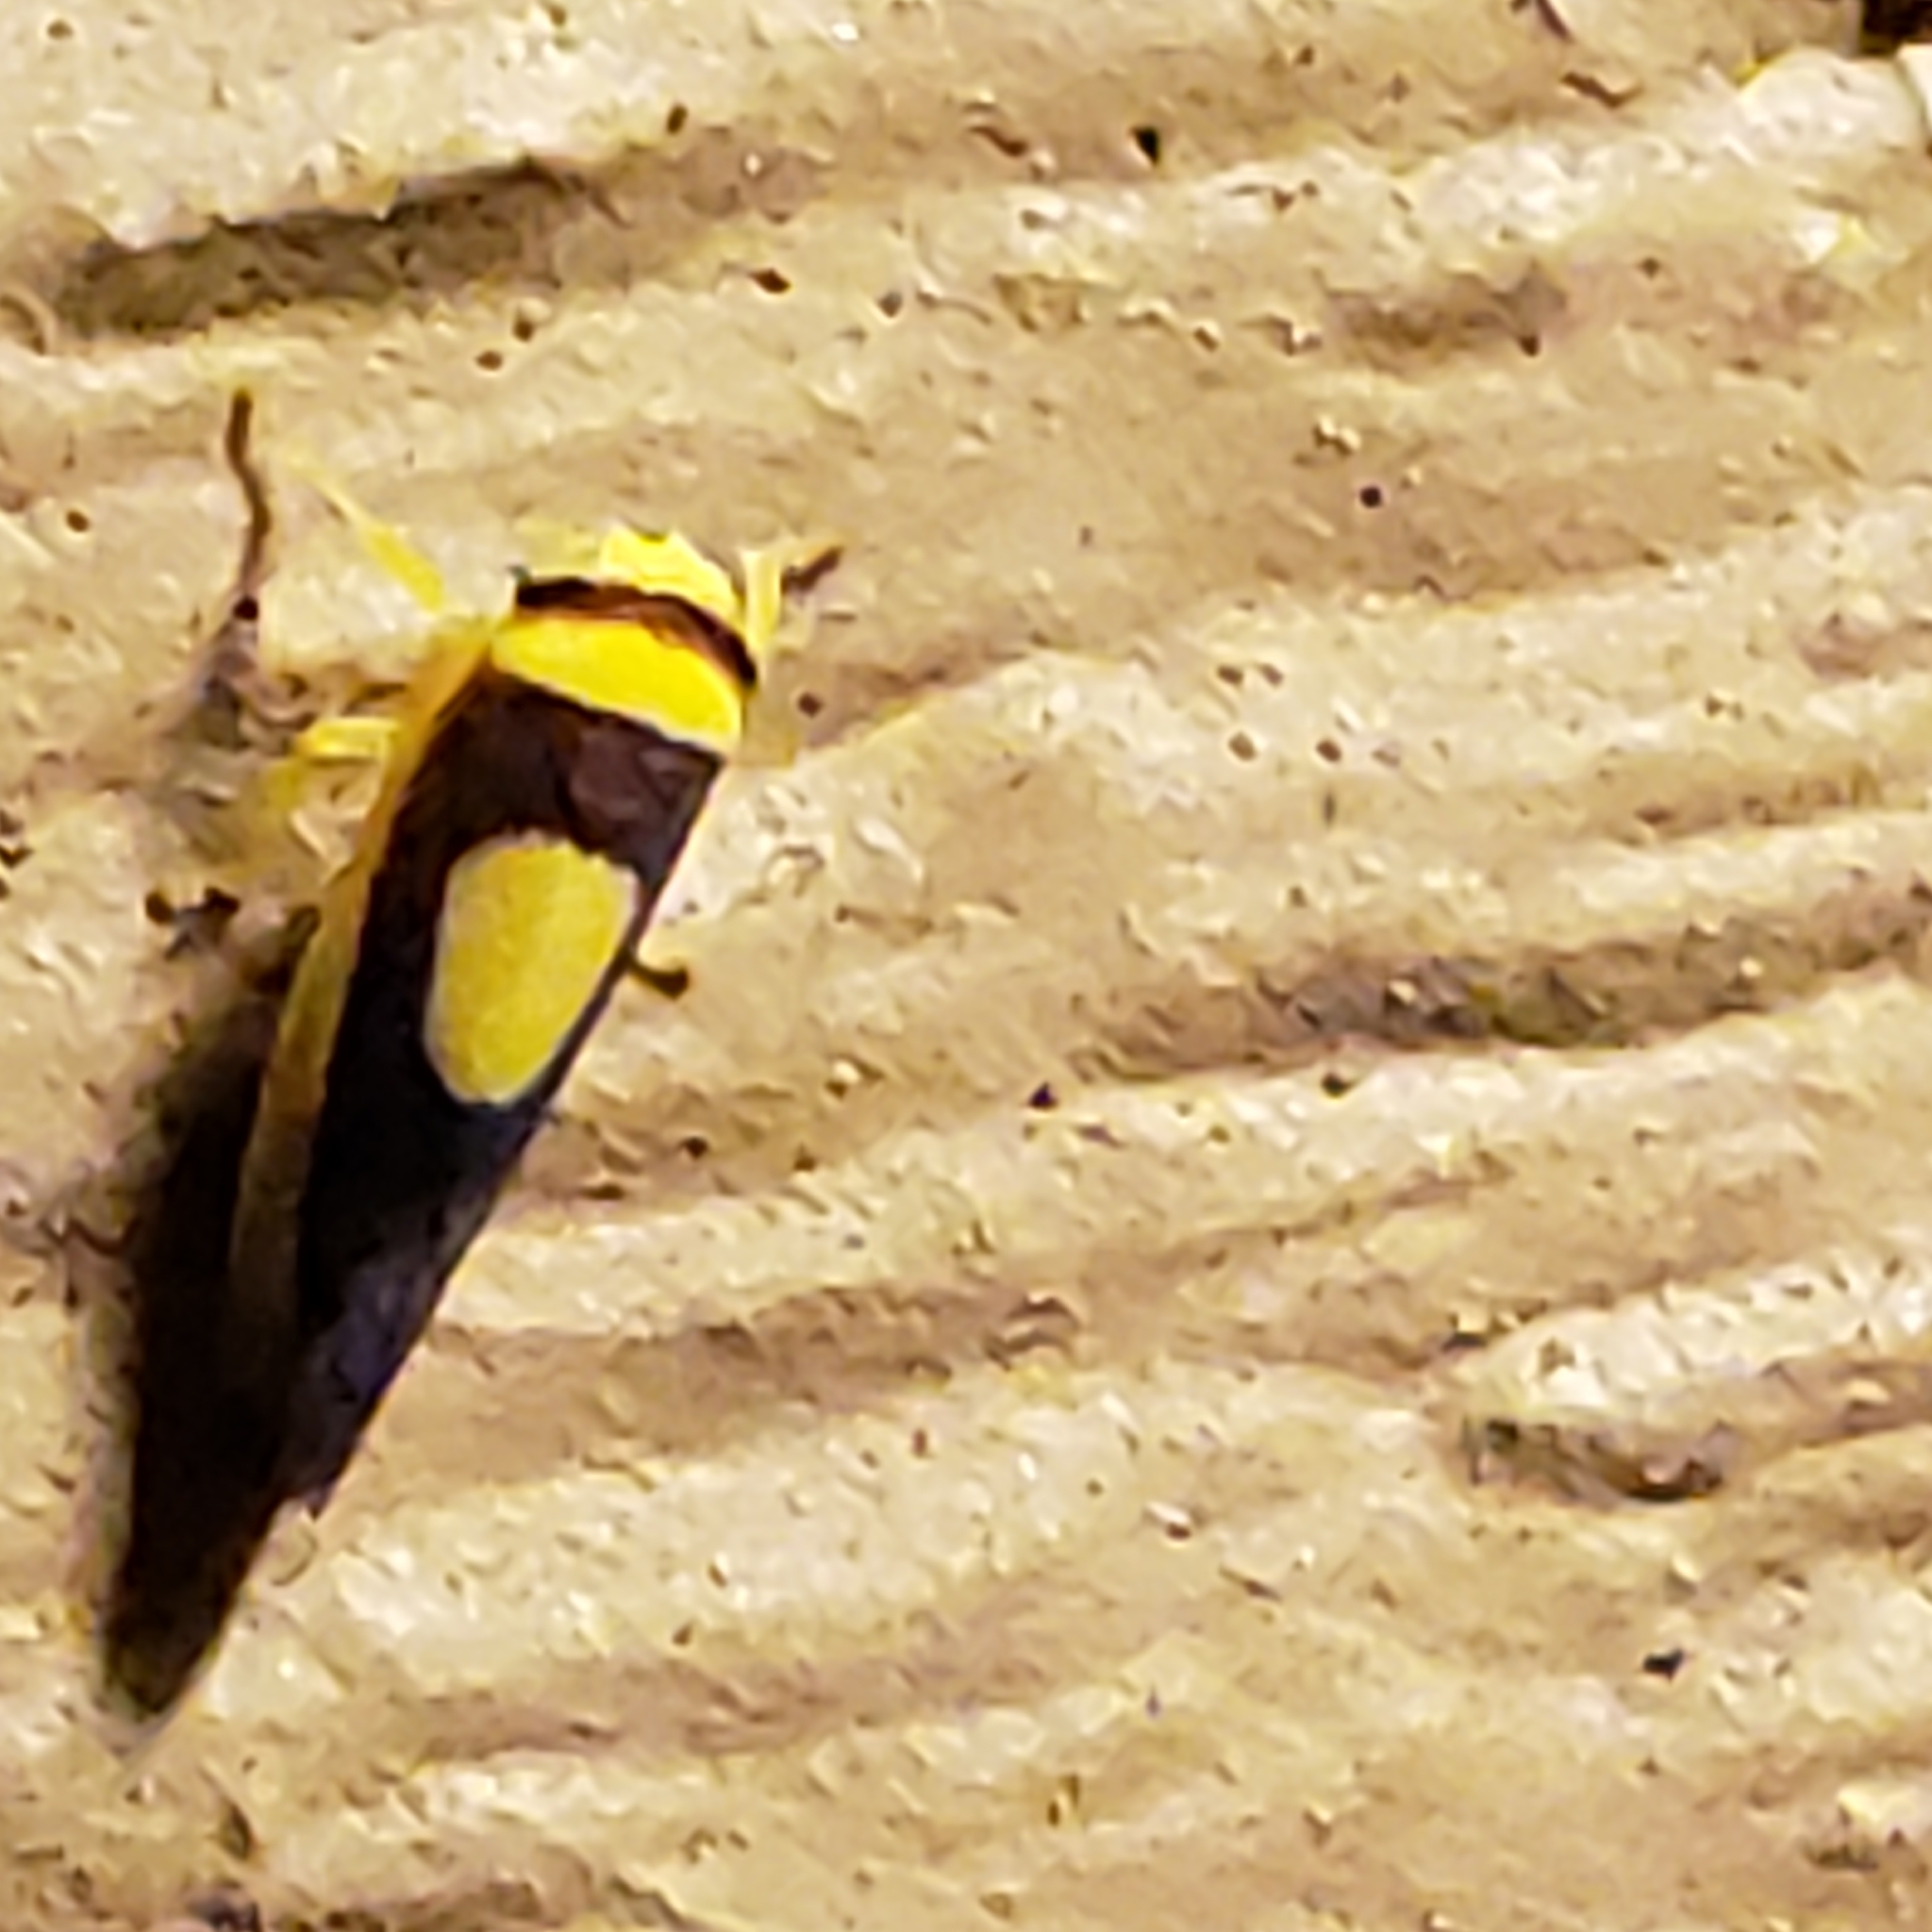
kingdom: Animalia
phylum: Arthropoda
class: Insecta
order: Hemiptera
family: Cicadellidae
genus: Colladonus
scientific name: Colladonus clitellarius
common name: The saddleback leafhopper
